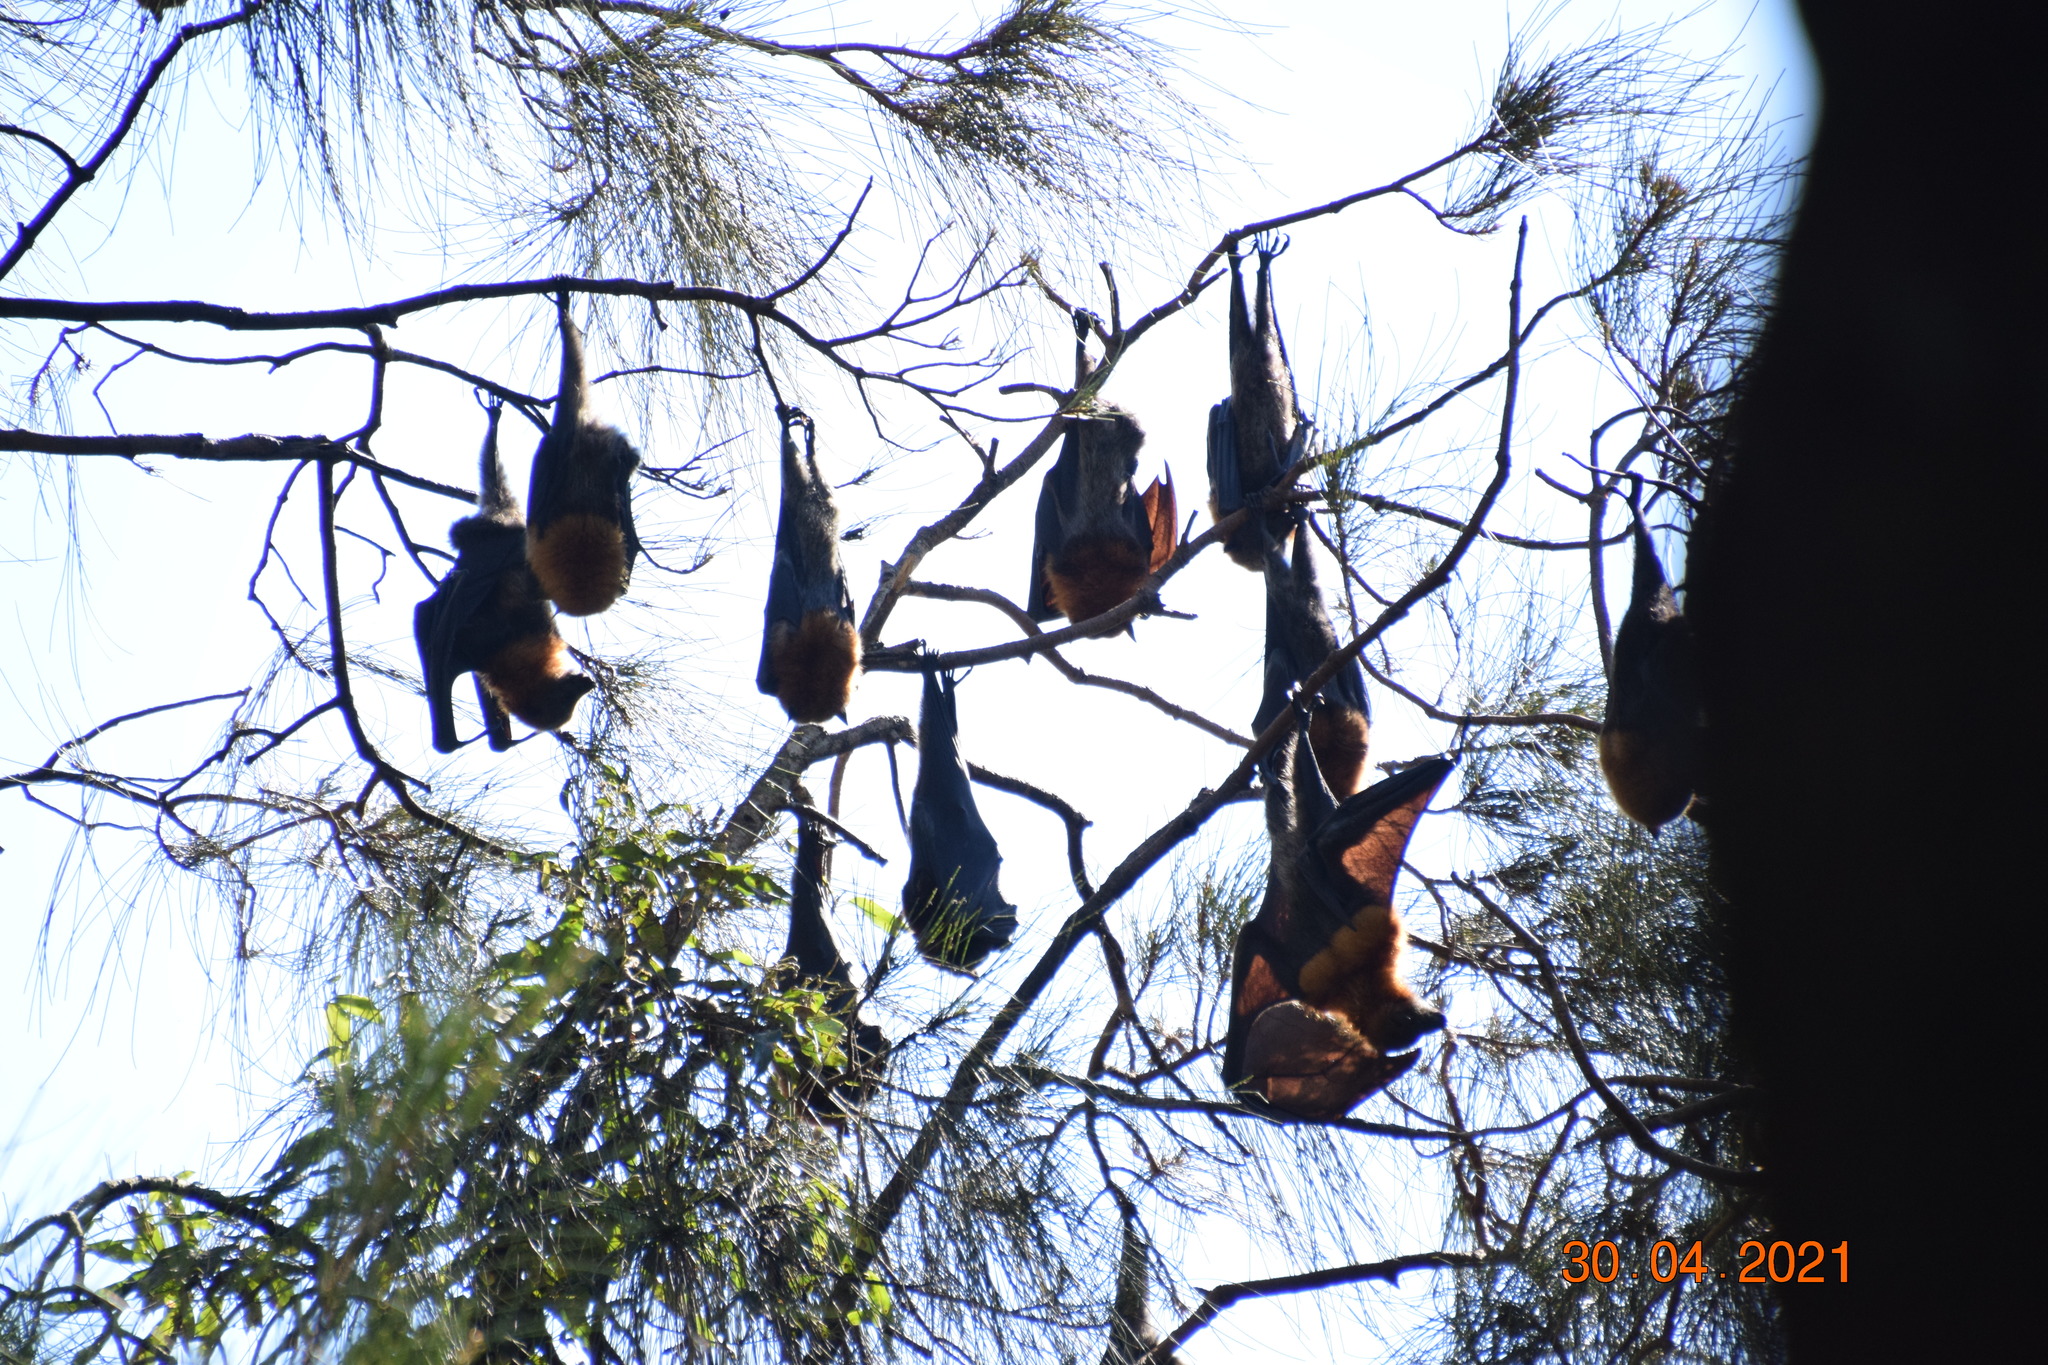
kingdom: Animalia
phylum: Chordata
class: Mammalia
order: Chiroptera
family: Pteropodidae
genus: Pteropus
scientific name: Pteropus poliocephalus
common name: Gray-headed flying fox
